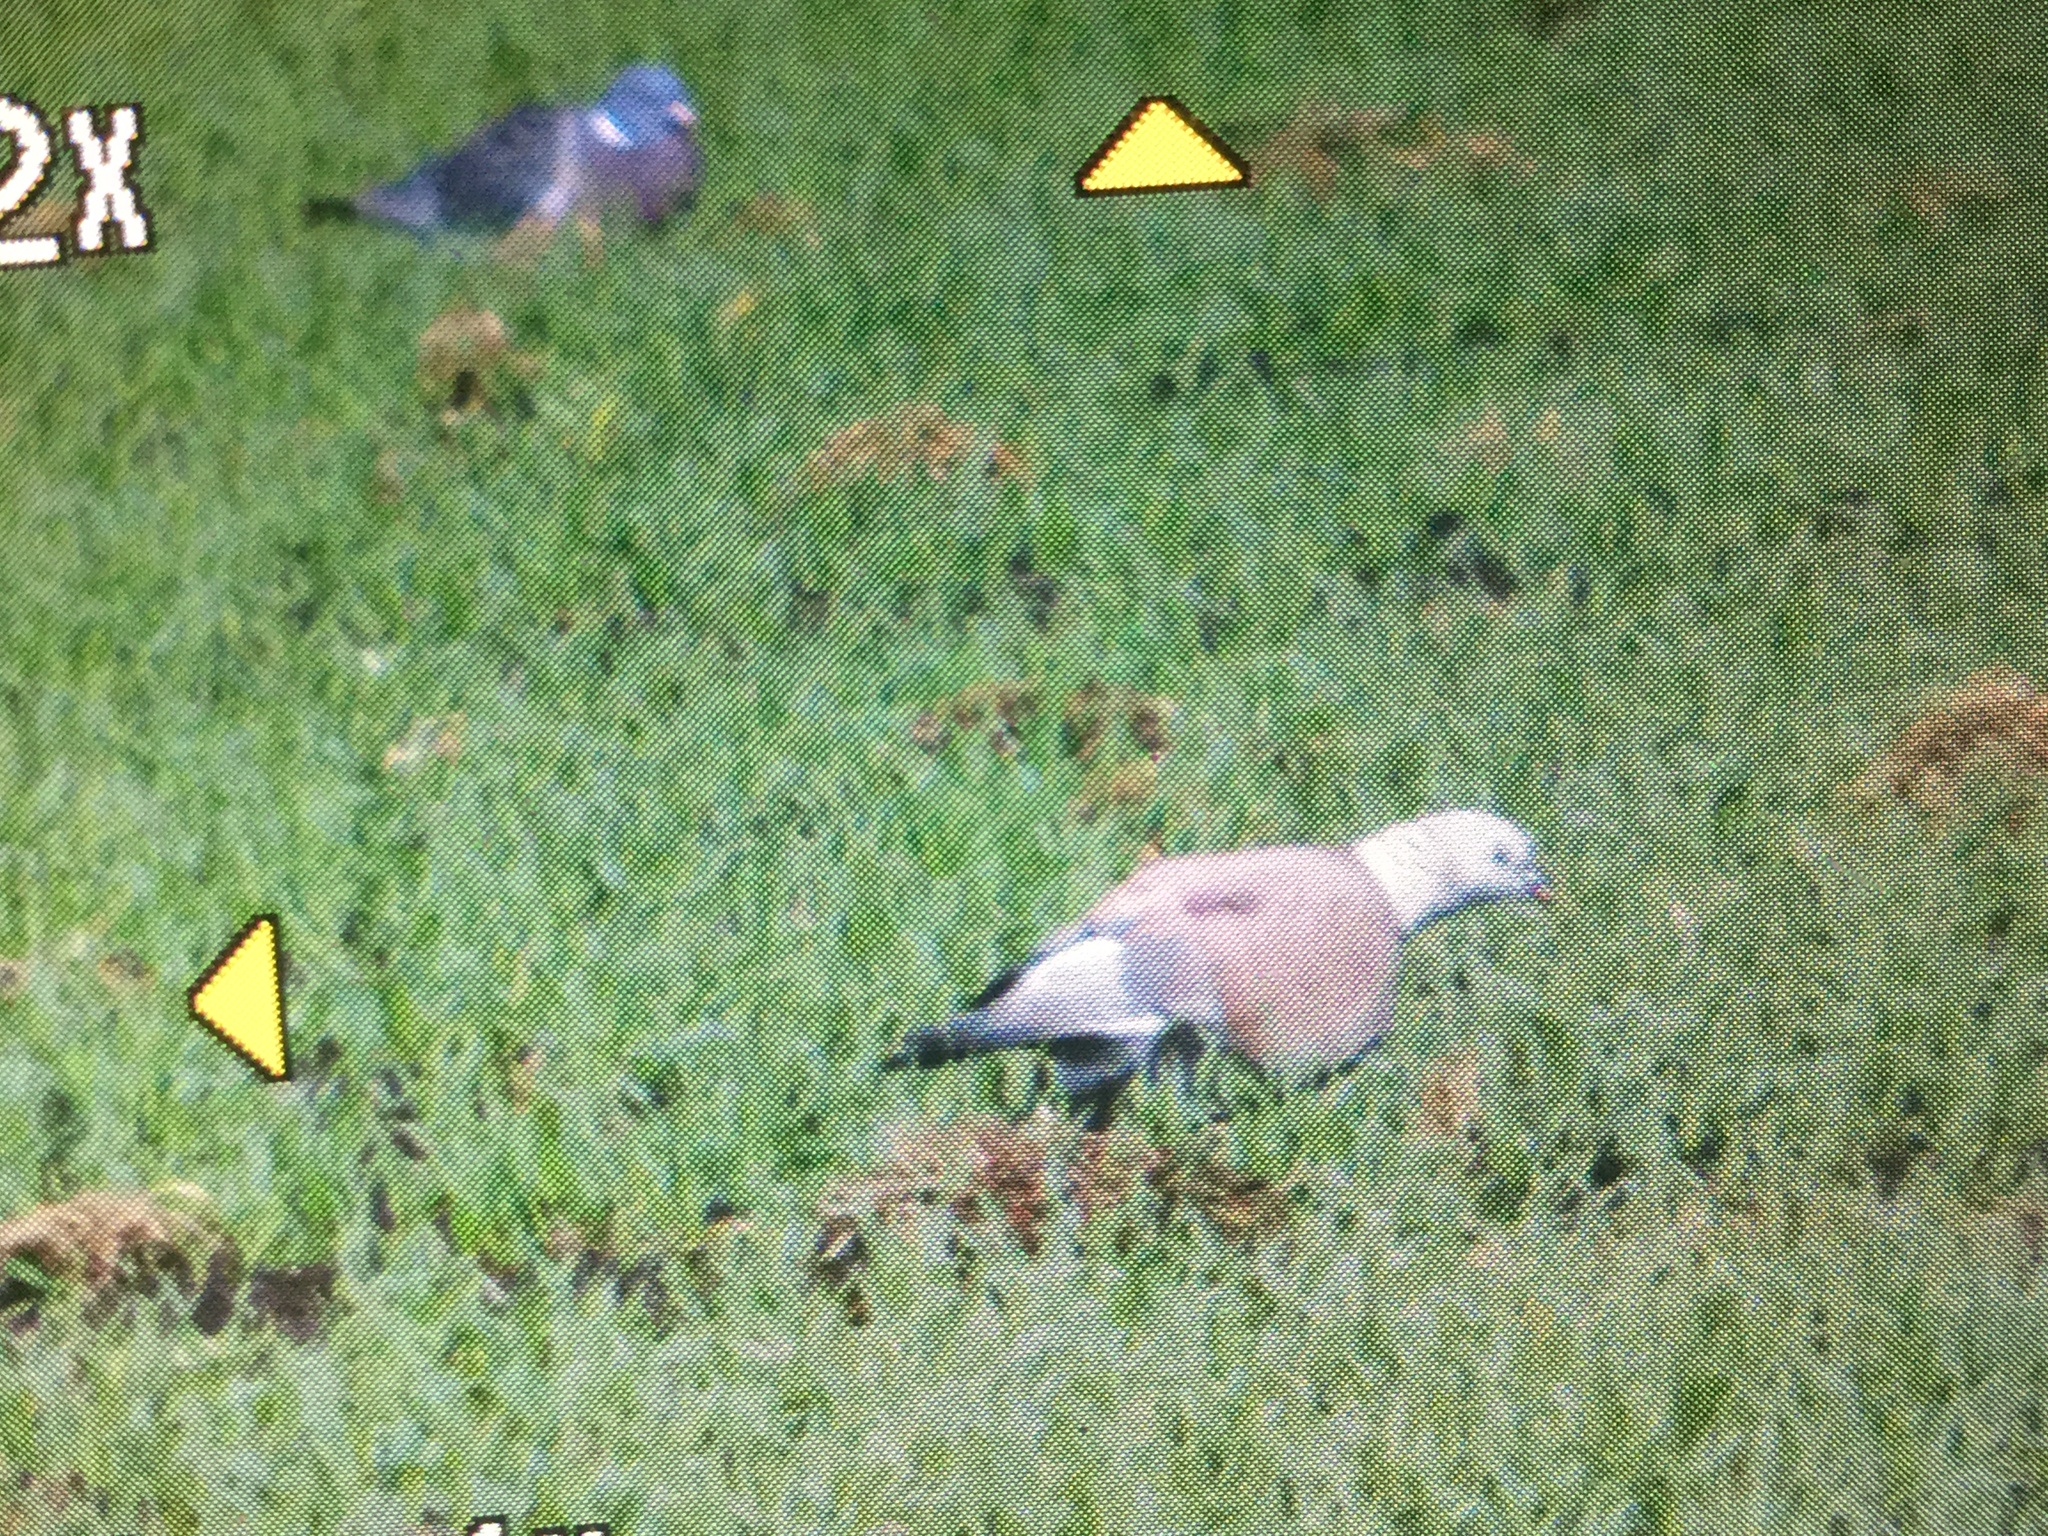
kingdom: Animalia
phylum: Chordata
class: Aves
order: Columbiformes
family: Columbidae
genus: Columba
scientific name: Columba palumbus
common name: Common wood pigeon
